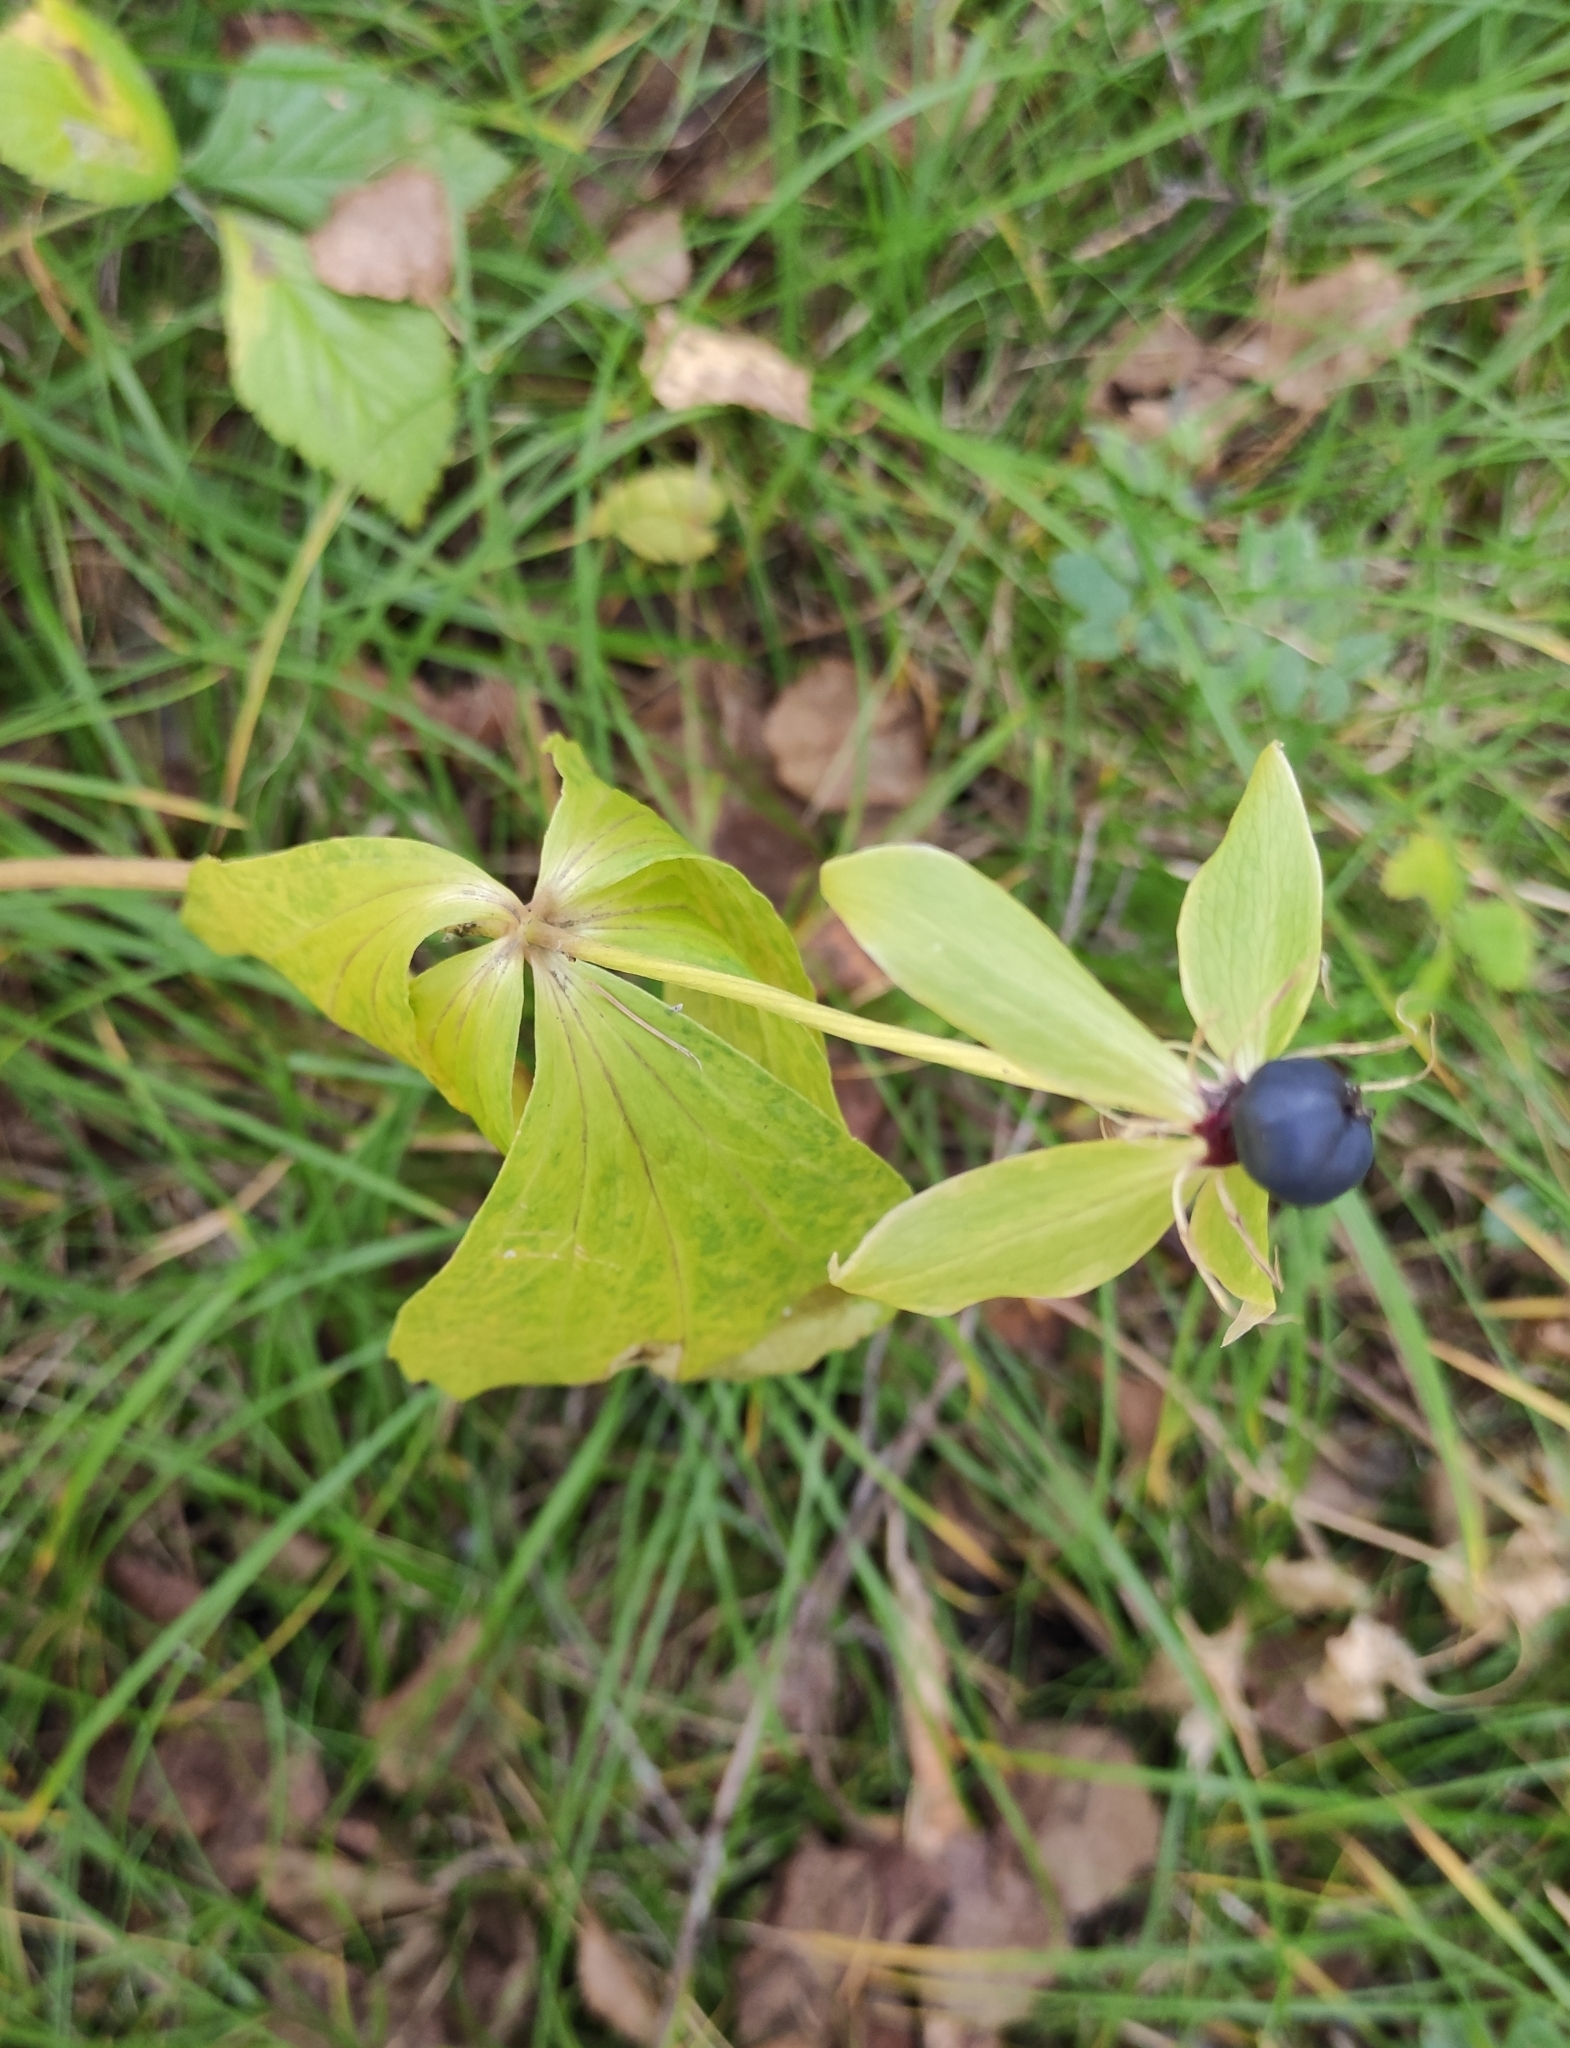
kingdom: Plantae
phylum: Tracheophyta
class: Liliopsida
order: Liliales
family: Melanthiaceae
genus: Paris
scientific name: Paris verticillata
